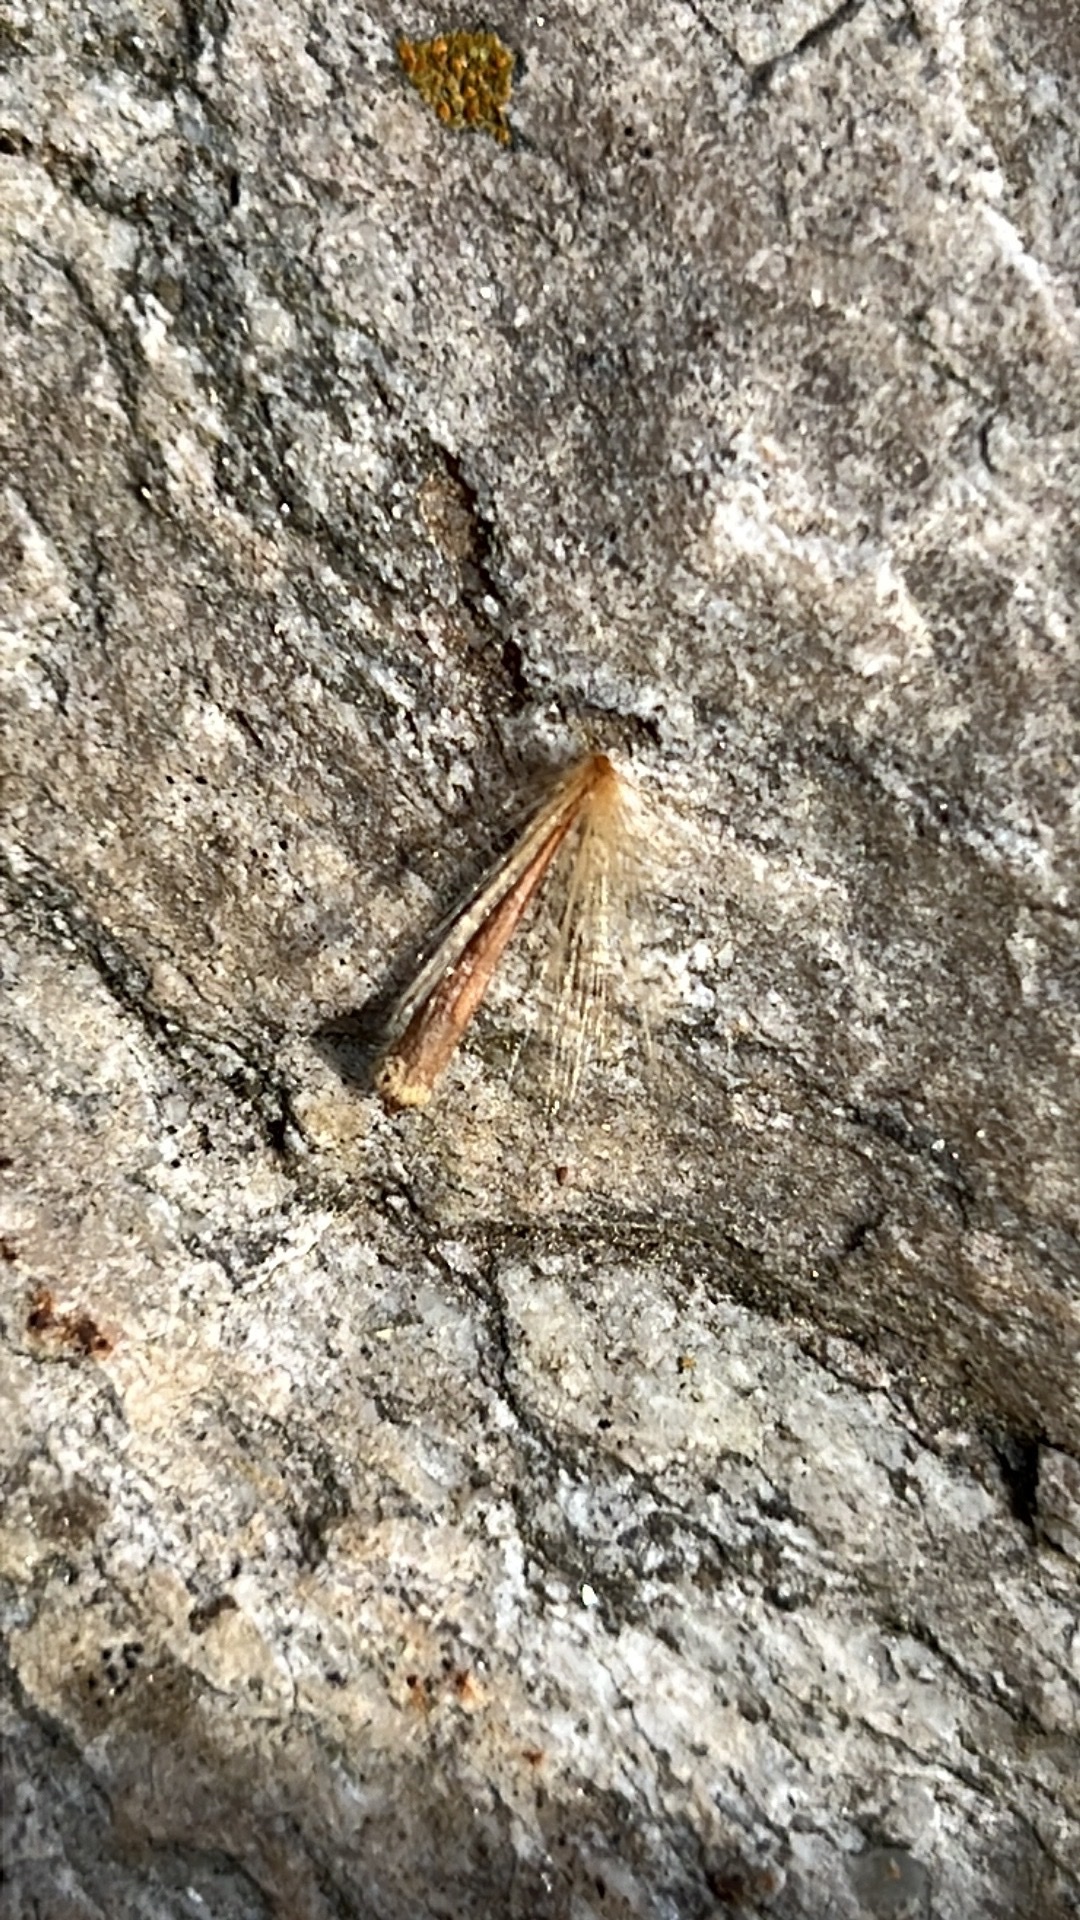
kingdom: Plantae
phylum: Tracheophyta
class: Magnoliopsida
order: Proteales
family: Platanaceae
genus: Platanus
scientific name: Platanus occidentalis
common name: American sycamore
